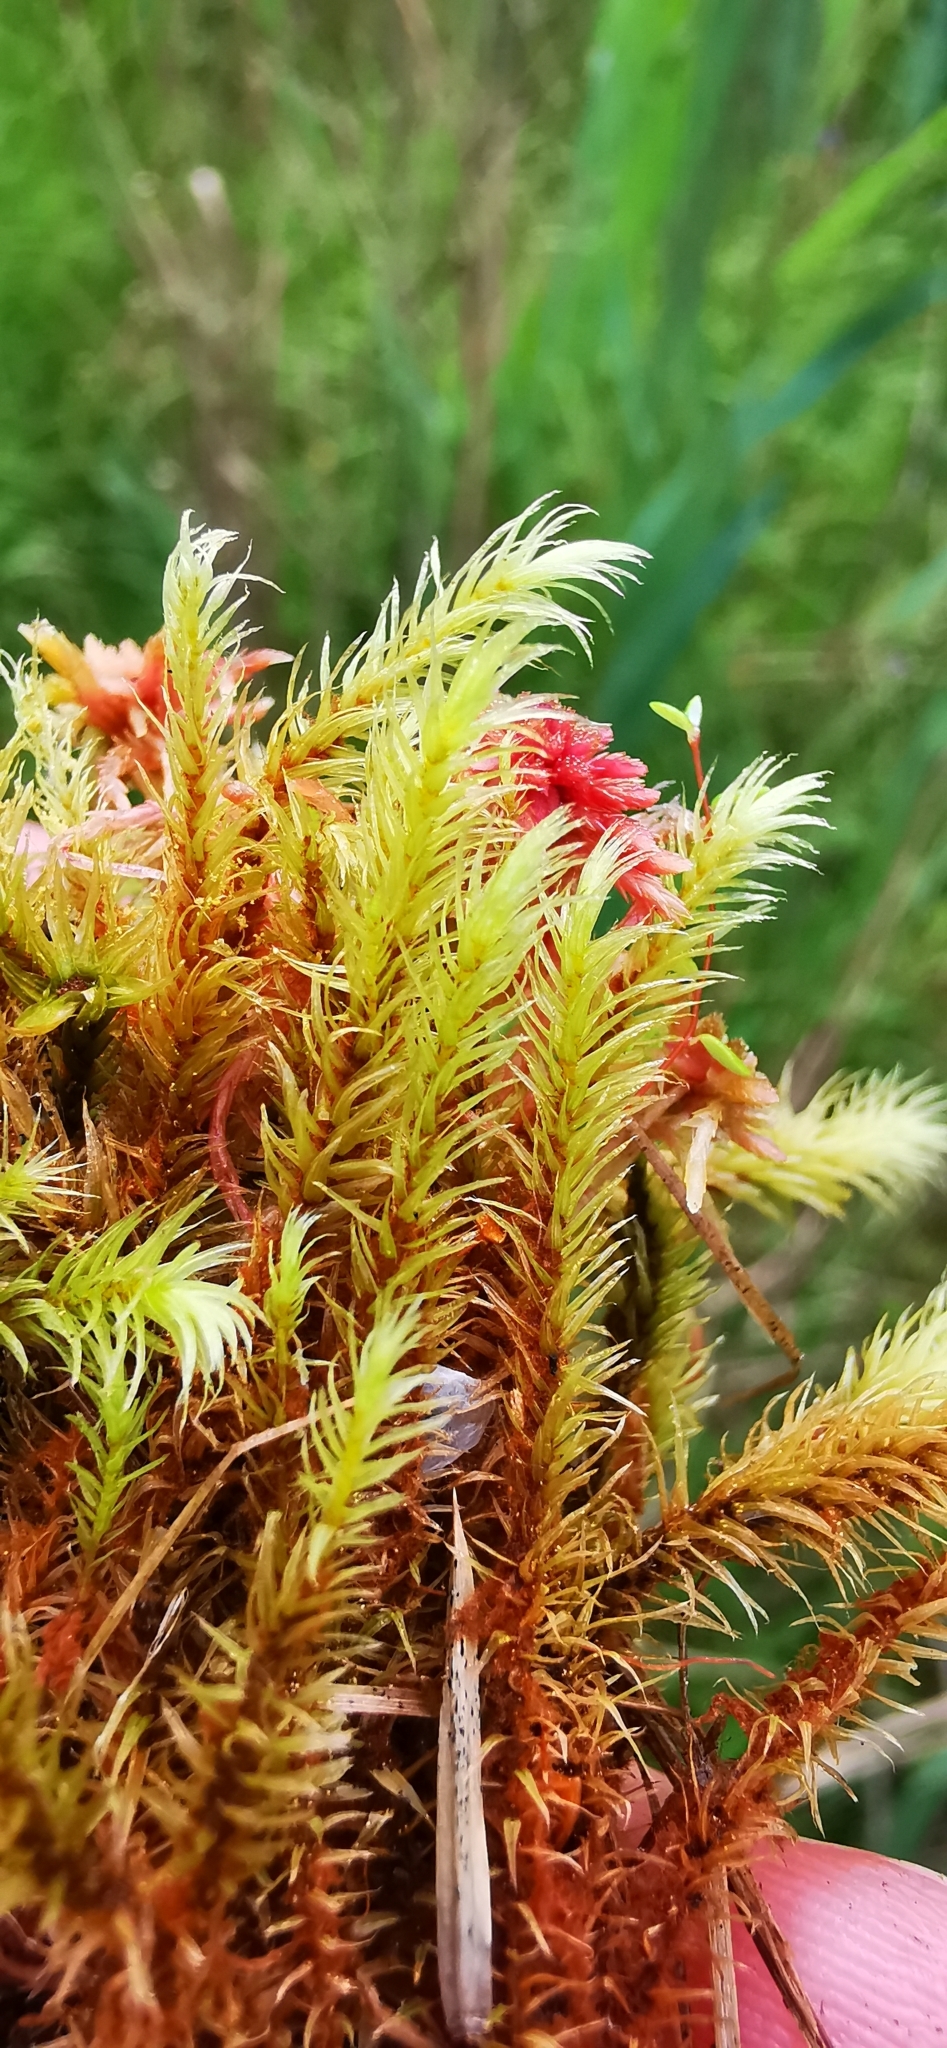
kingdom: Plantae
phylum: Bryophyta
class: Bryopsida
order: Aulacomniales
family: Aulacomniaceae
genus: Aulacomnium
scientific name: Aulacomnium palustre
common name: Bog groove-moss
